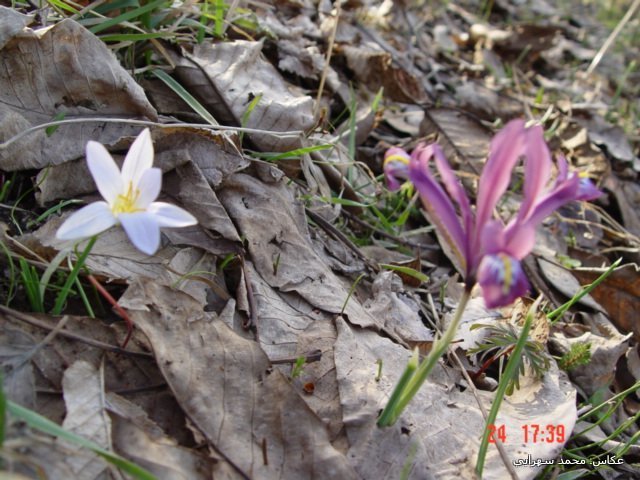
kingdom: Plantae
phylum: Tracheophyta
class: Liliopsida
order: Asparagales
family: Iridaceae
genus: Iris
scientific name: Iris reticulata
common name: Netted iris
